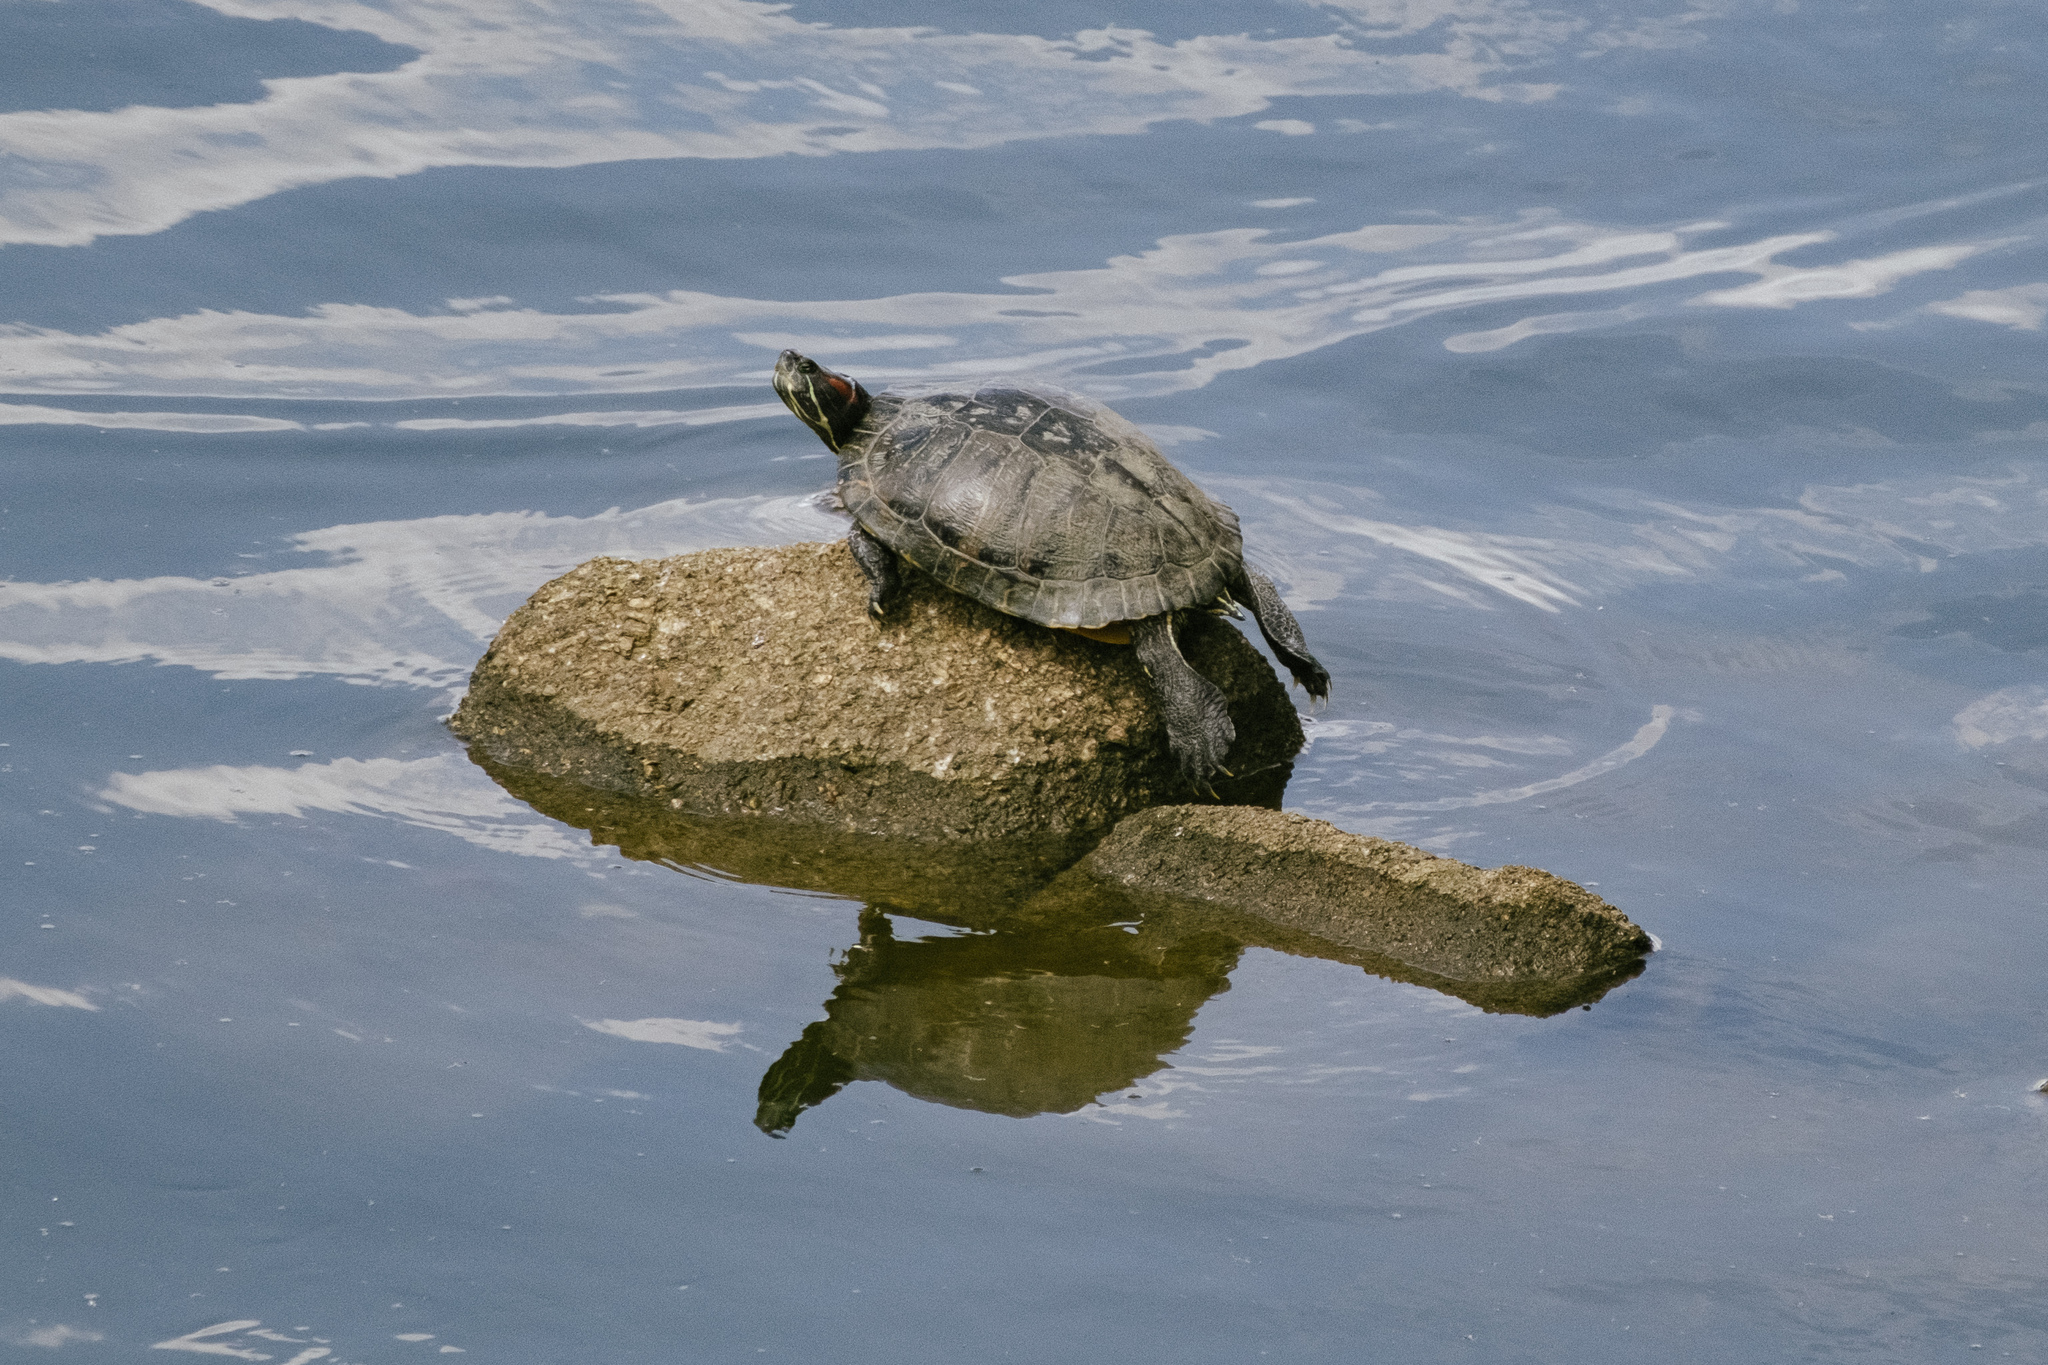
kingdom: Animalia
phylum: Chordata
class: Testudines
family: Emydidae
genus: Trachemys
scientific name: Trachemys scripta
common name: Slider
